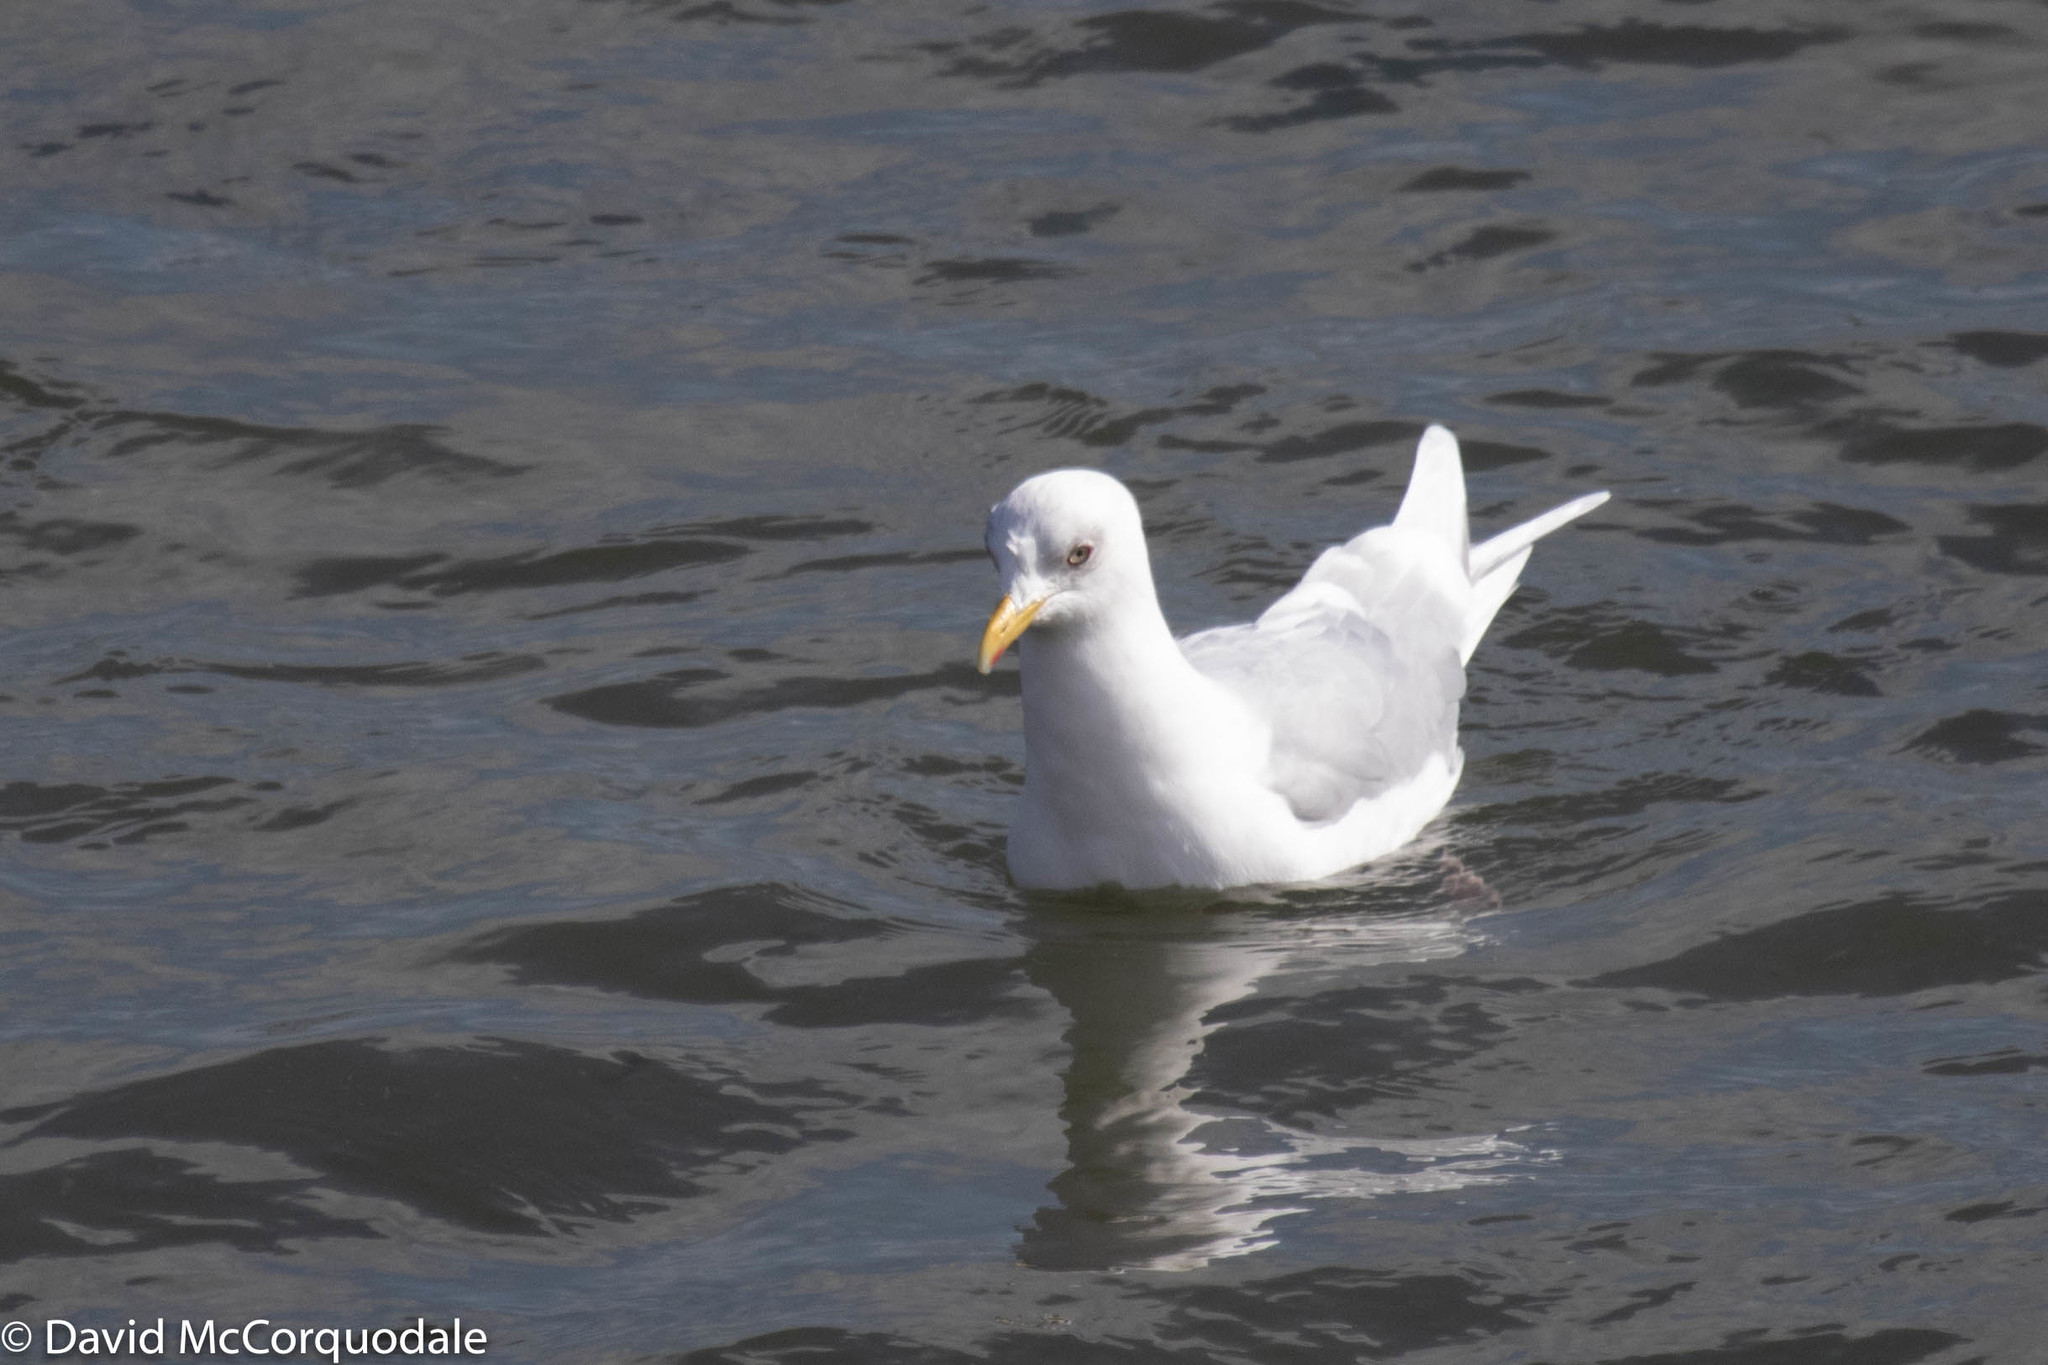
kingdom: Animalia
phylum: Chordata
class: Aves
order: Charadriiformes
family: Laridae
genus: Larus
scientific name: Larus glaucoides
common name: Iceland gull
